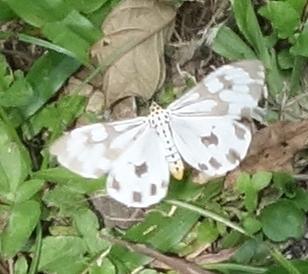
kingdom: Animalia
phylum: Arthropoda
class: Insecta
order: Lepidoptera
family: Erebidae
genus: Nyctemera
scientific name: Nyctemera adversata
